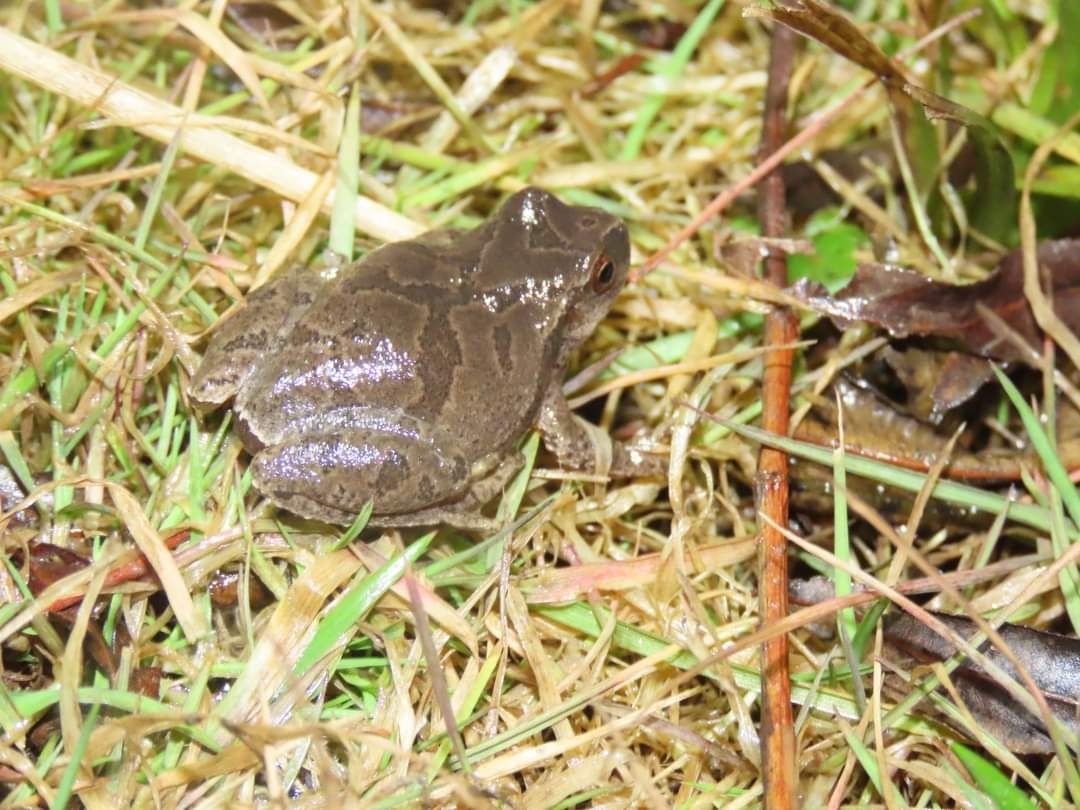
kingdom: Animalia
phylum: Chordata
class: Amphibia
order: Anura
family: Hylidae
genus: Pseudacris
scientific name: Pseudacris crucifer
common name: Spring peeper
